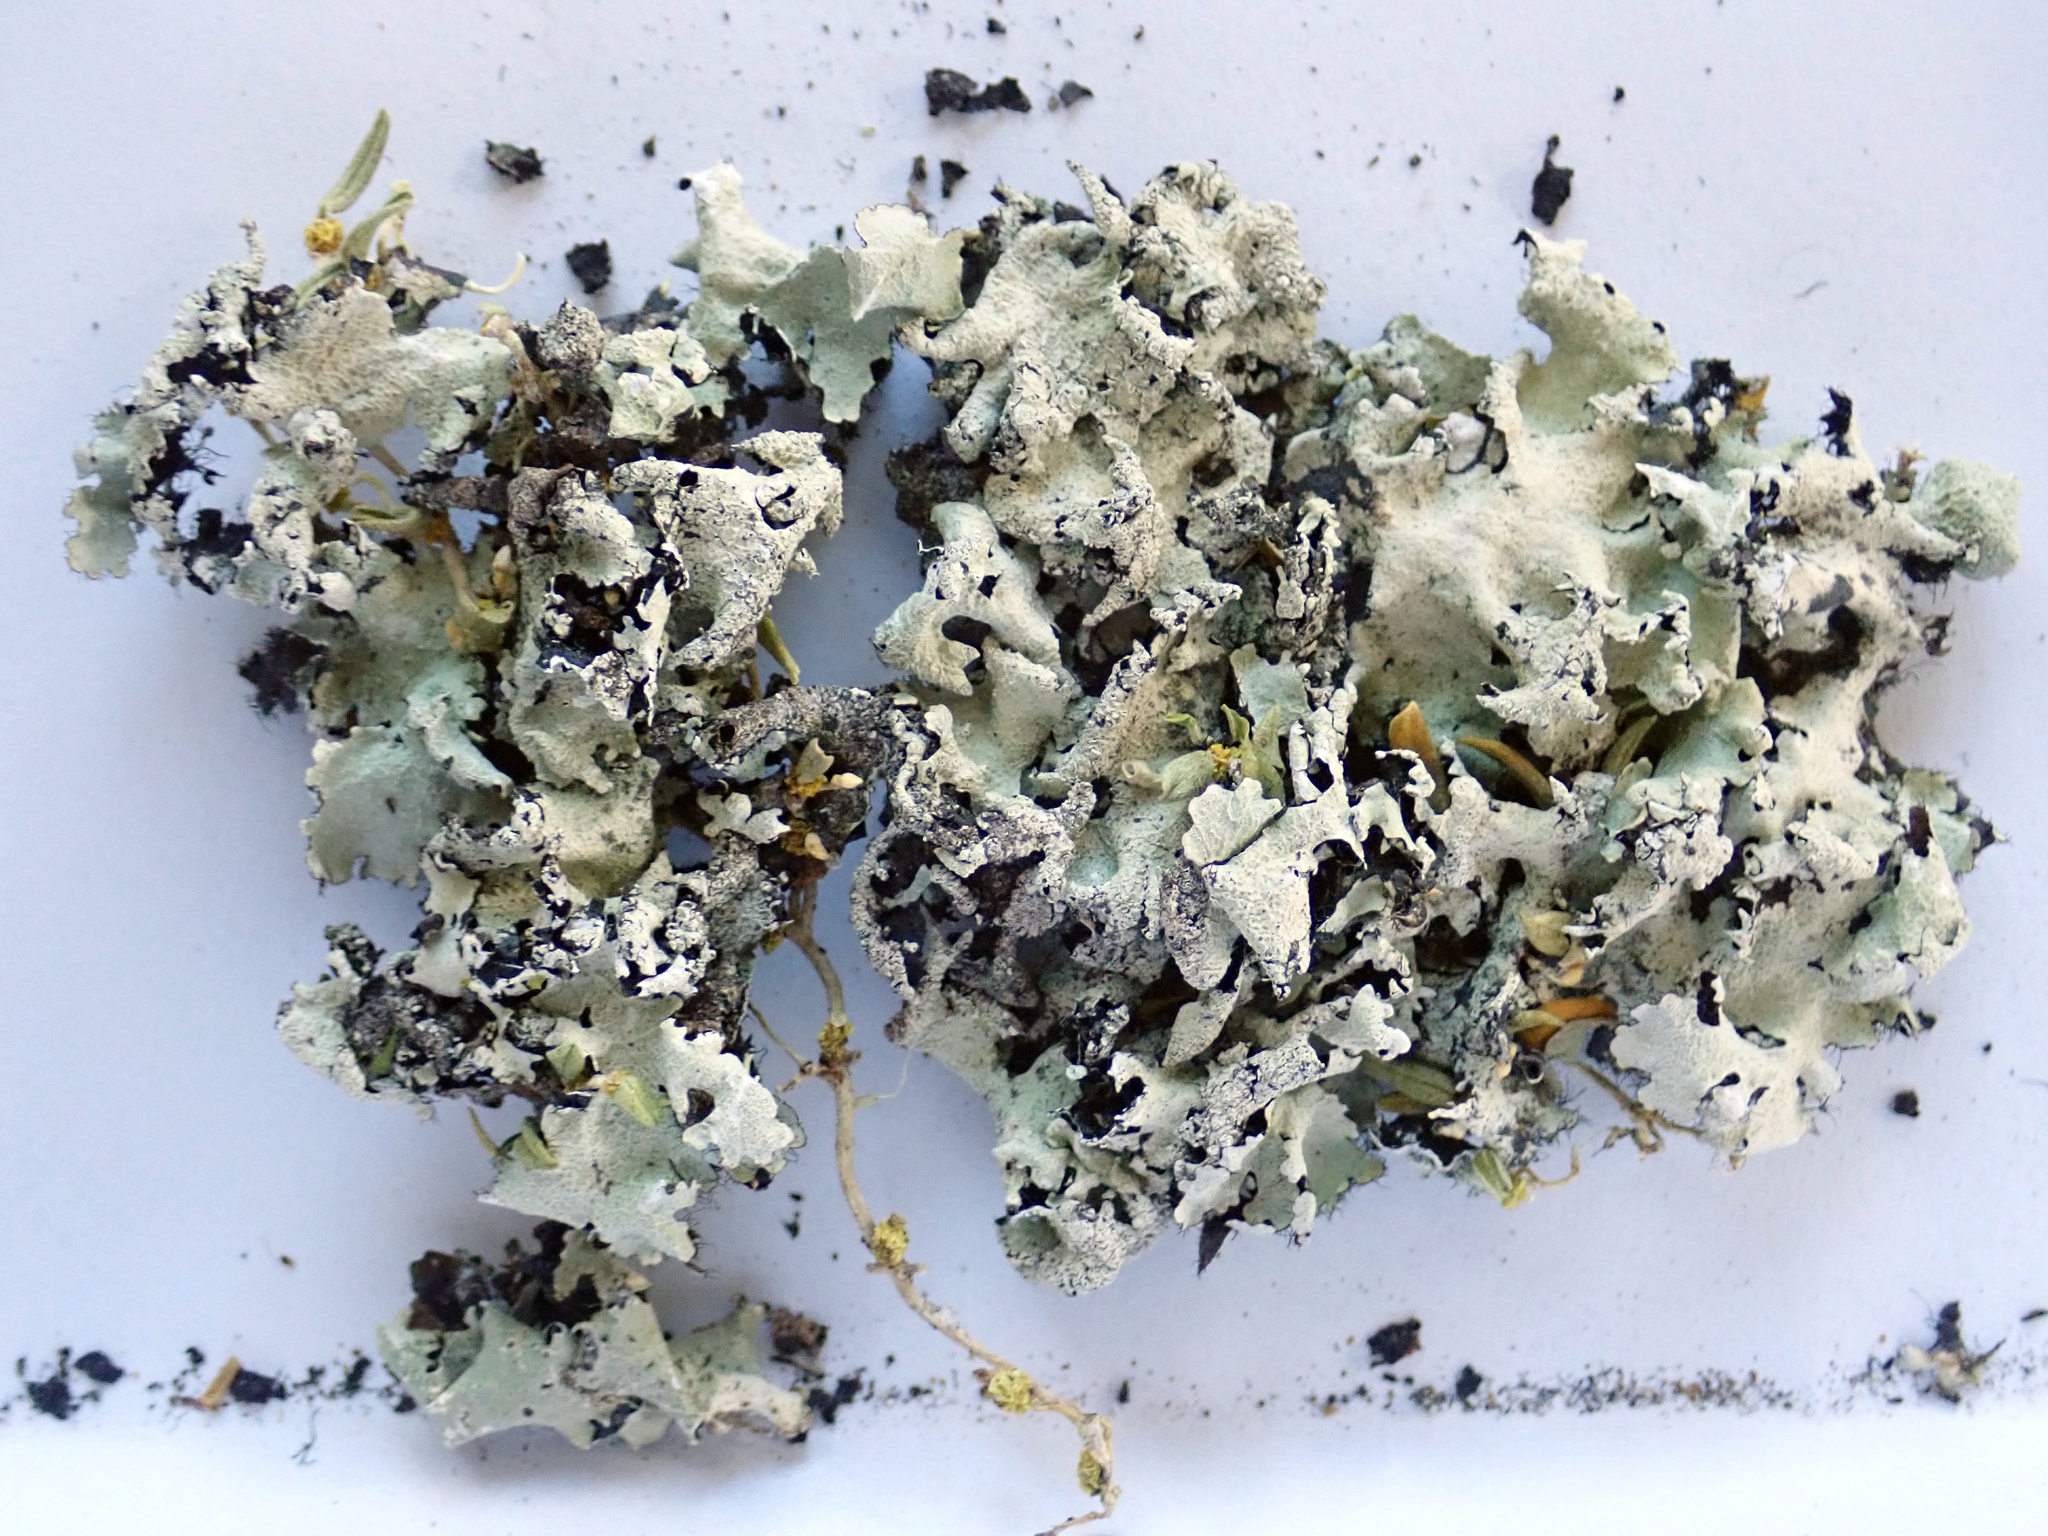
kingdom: Fungi
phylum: Ascomycota
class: Lecanoromycetes
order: Lecanorales
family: Parmeliaceae
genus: Parmotrema
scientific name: Parmotrema austrocetratum
